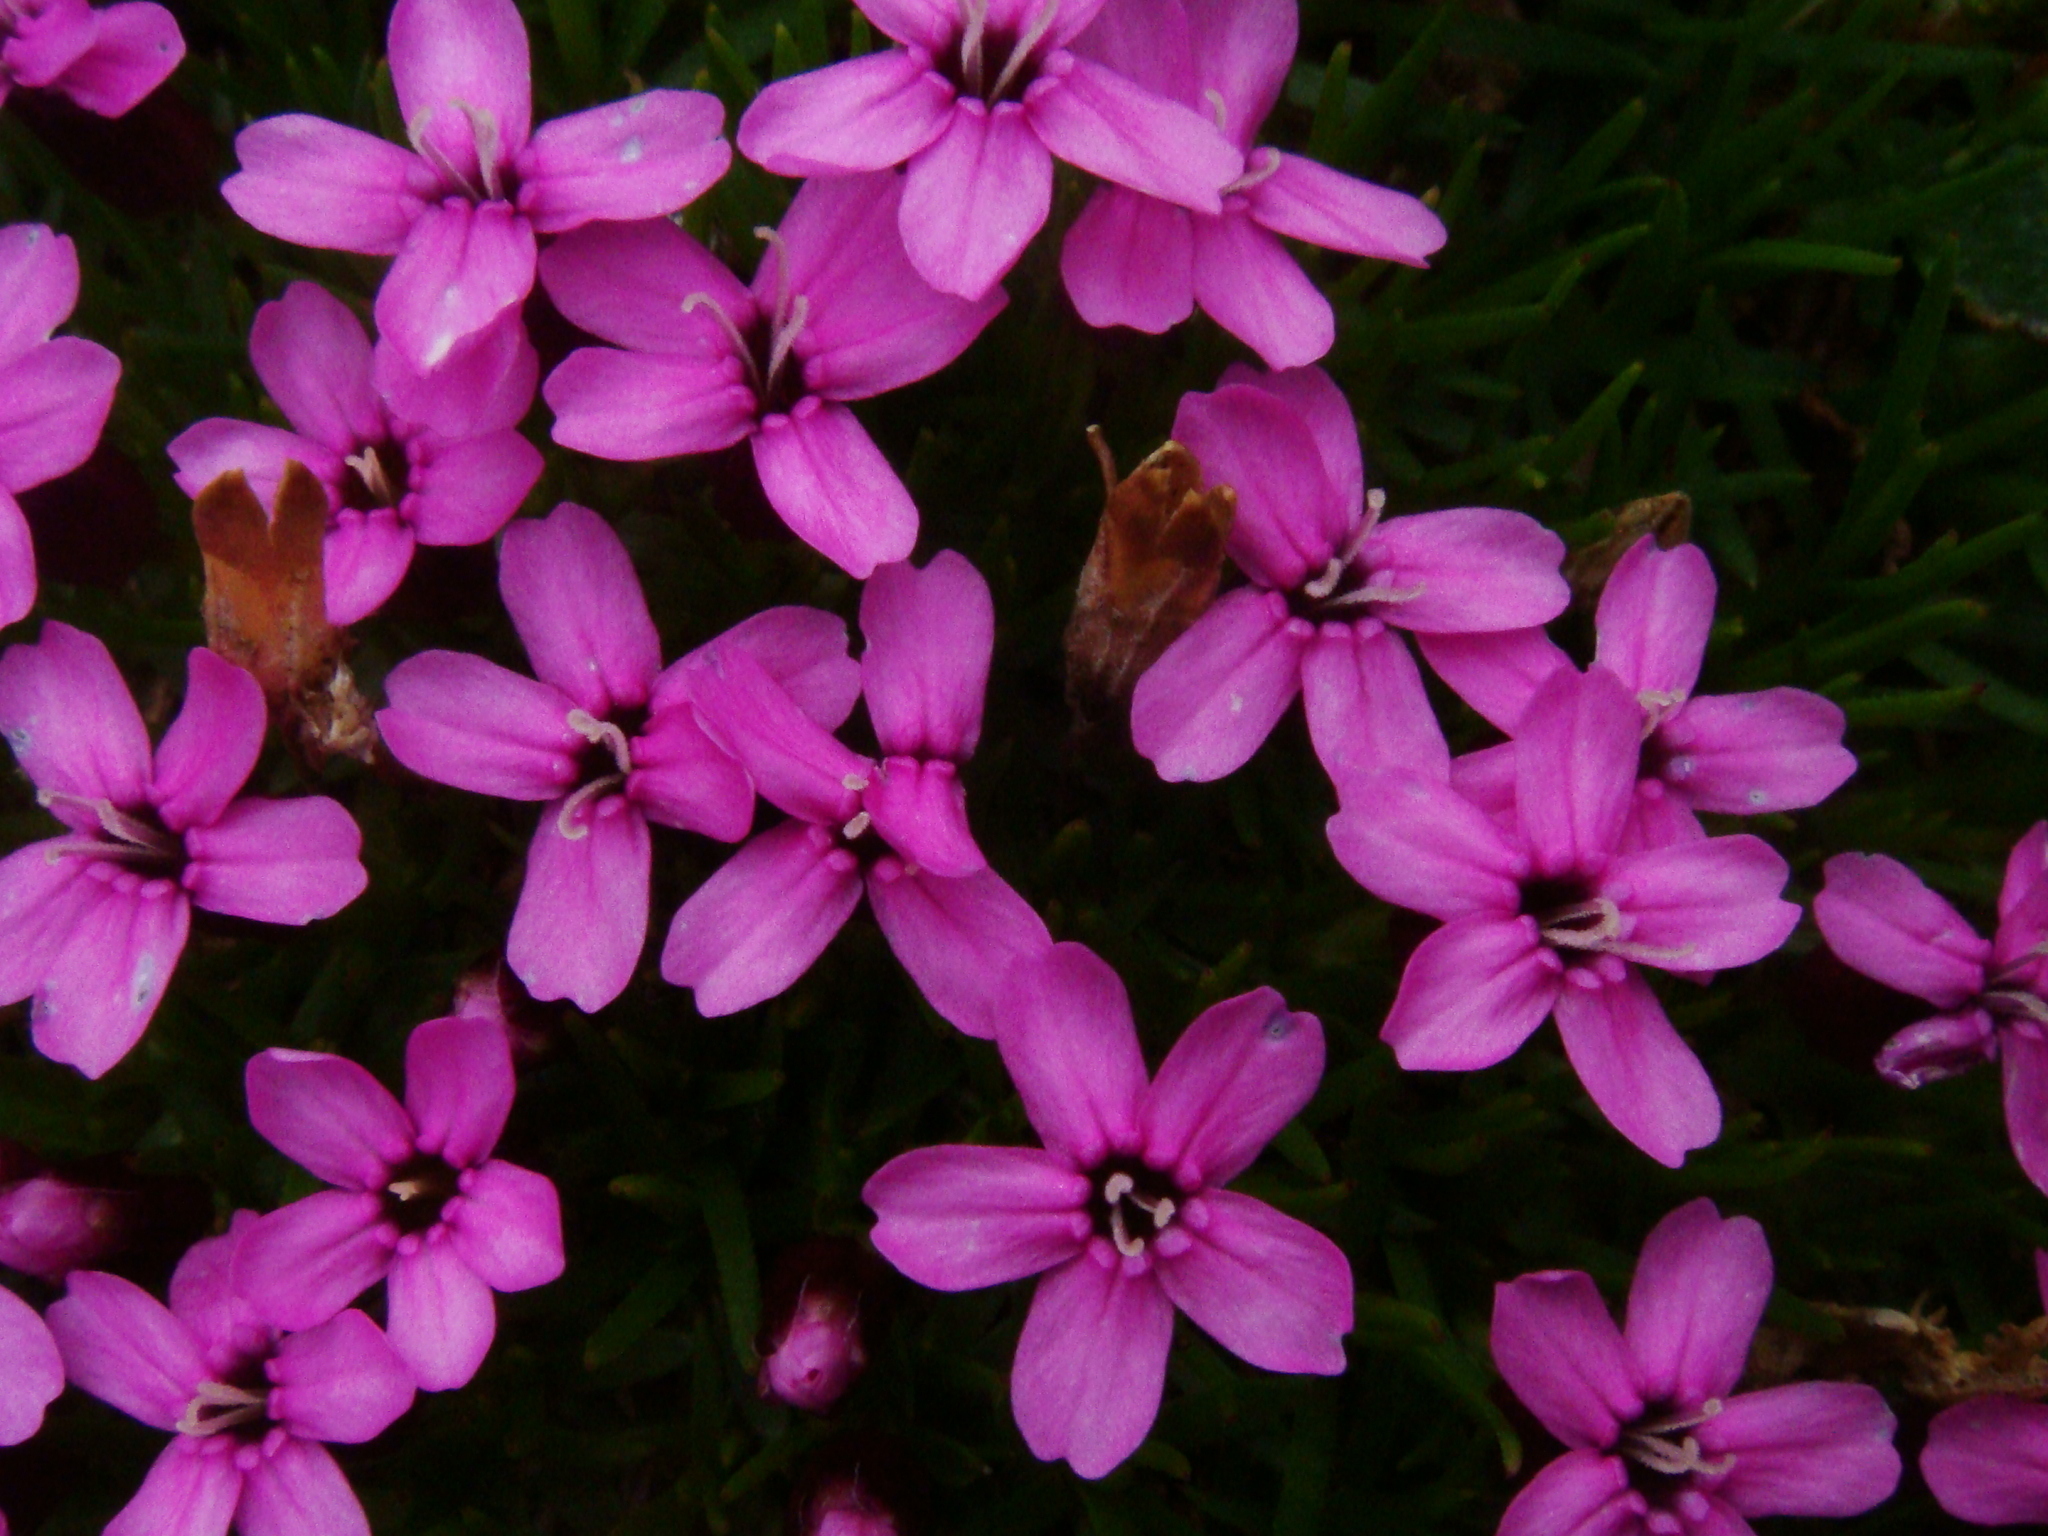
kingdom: Plantae
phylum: Tracheophyta
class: Magnoliopsida
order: Caryophyllales
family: Caryophyllaceae
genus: Silene
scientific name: Silene acaulis
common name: Moss campion
